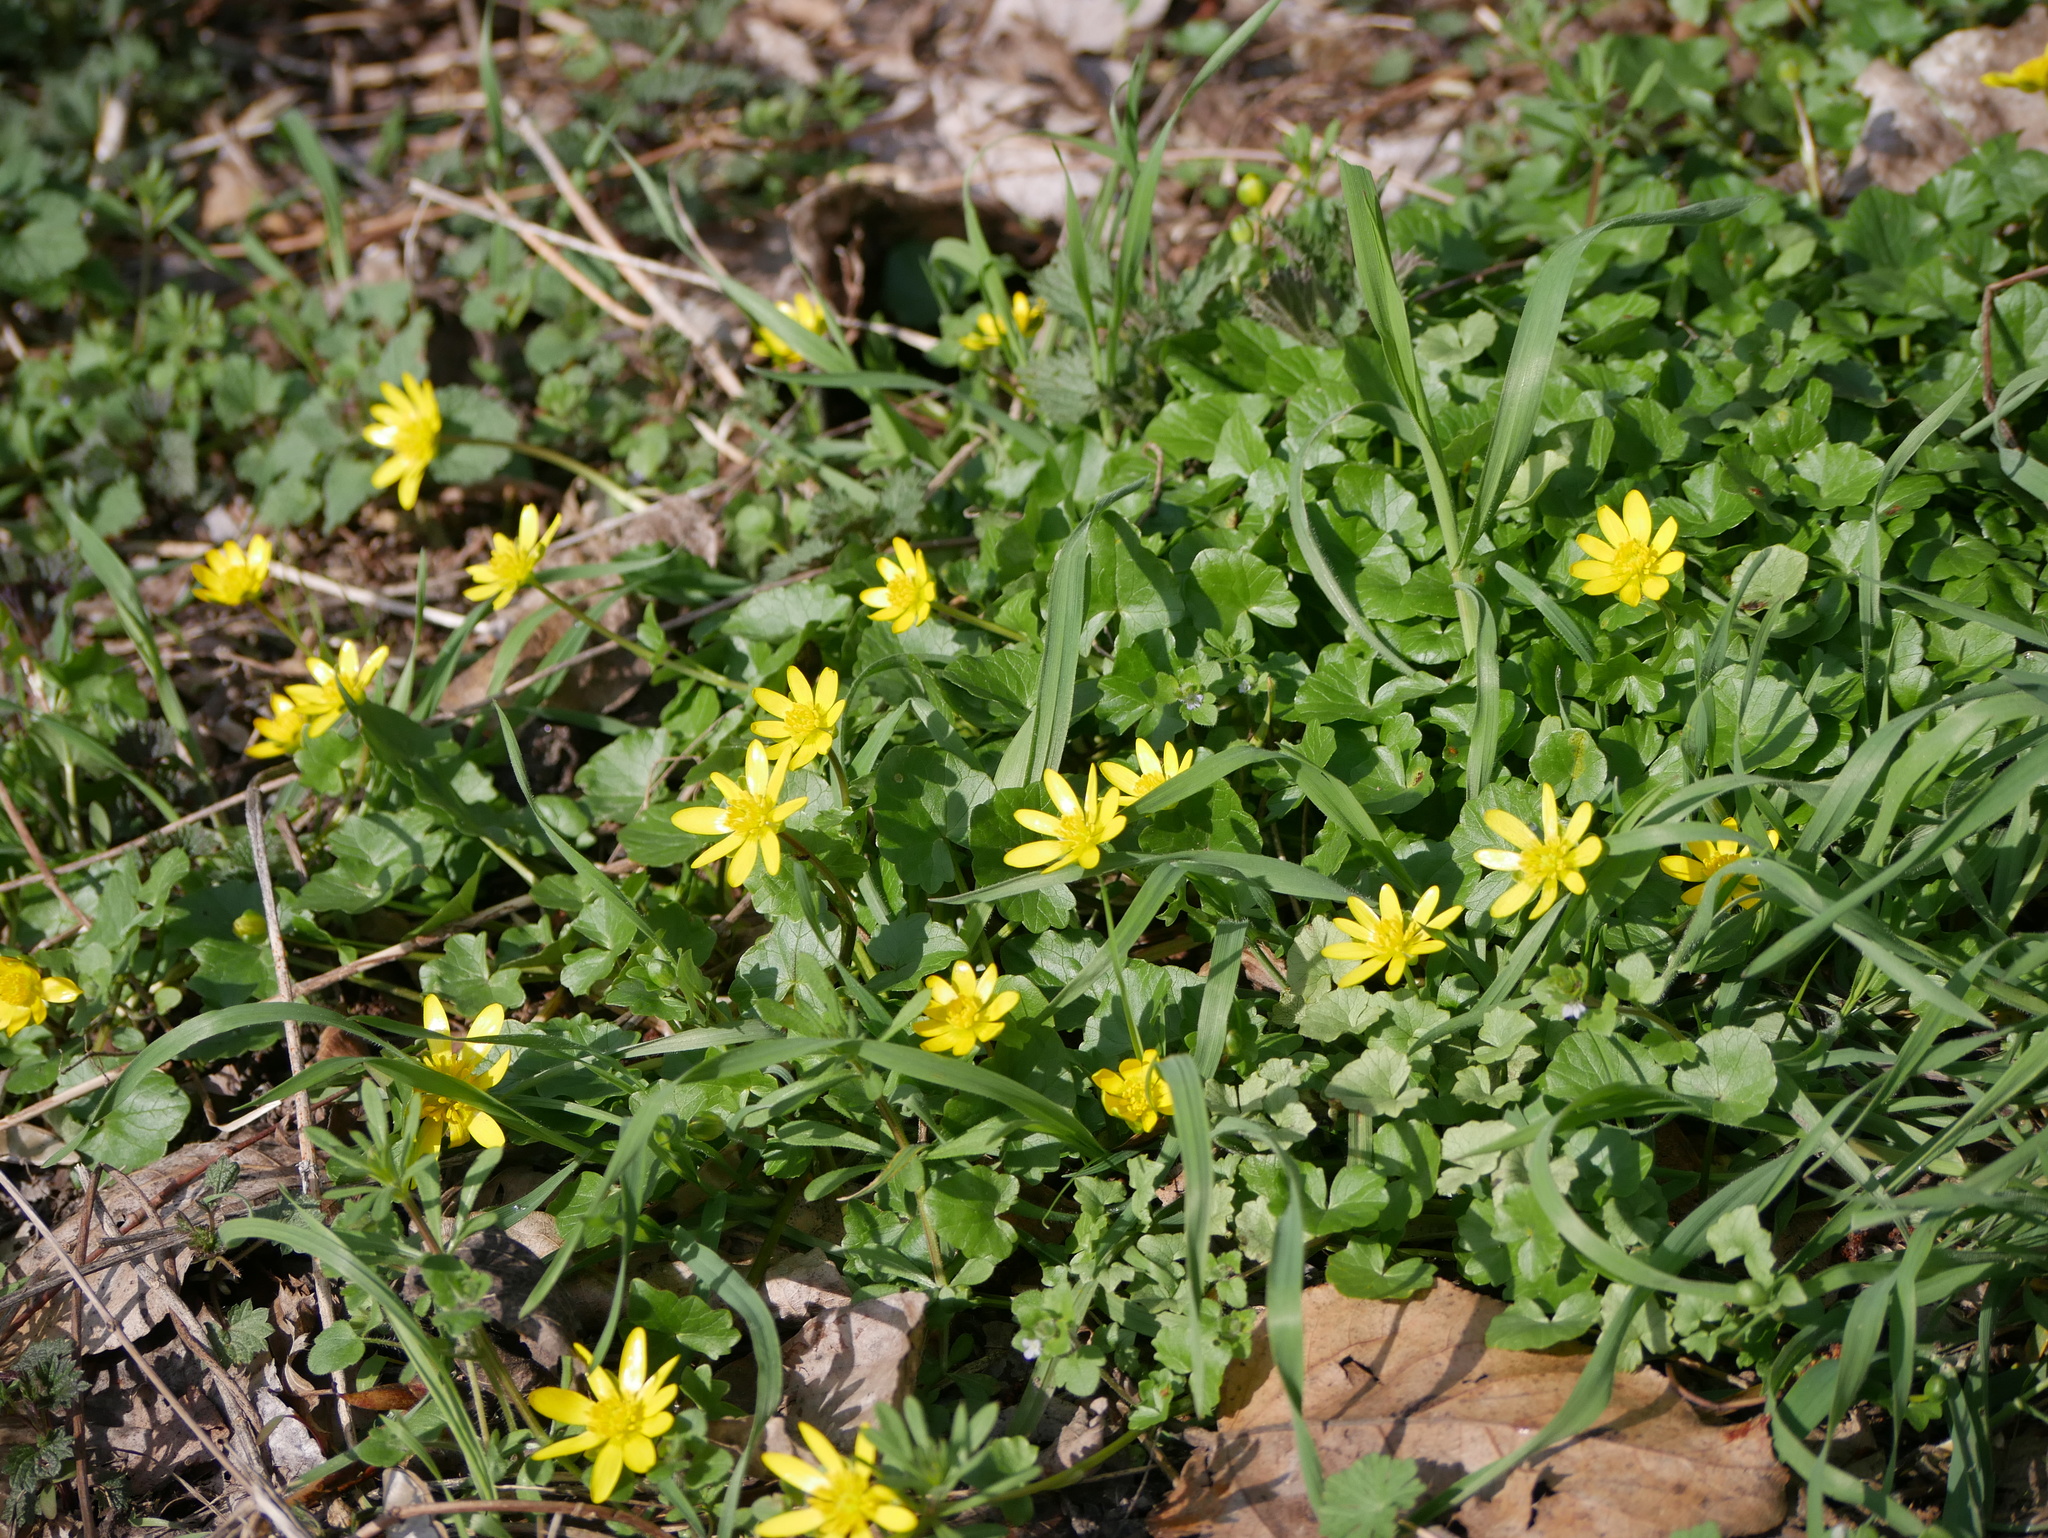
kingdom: Plantae
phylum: Tracheophyta
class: Magnoliopsida
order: Ranunculales
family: Ranunculaceae
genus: Ficaria
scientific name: Ficaria verna
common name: Lesser celandine
